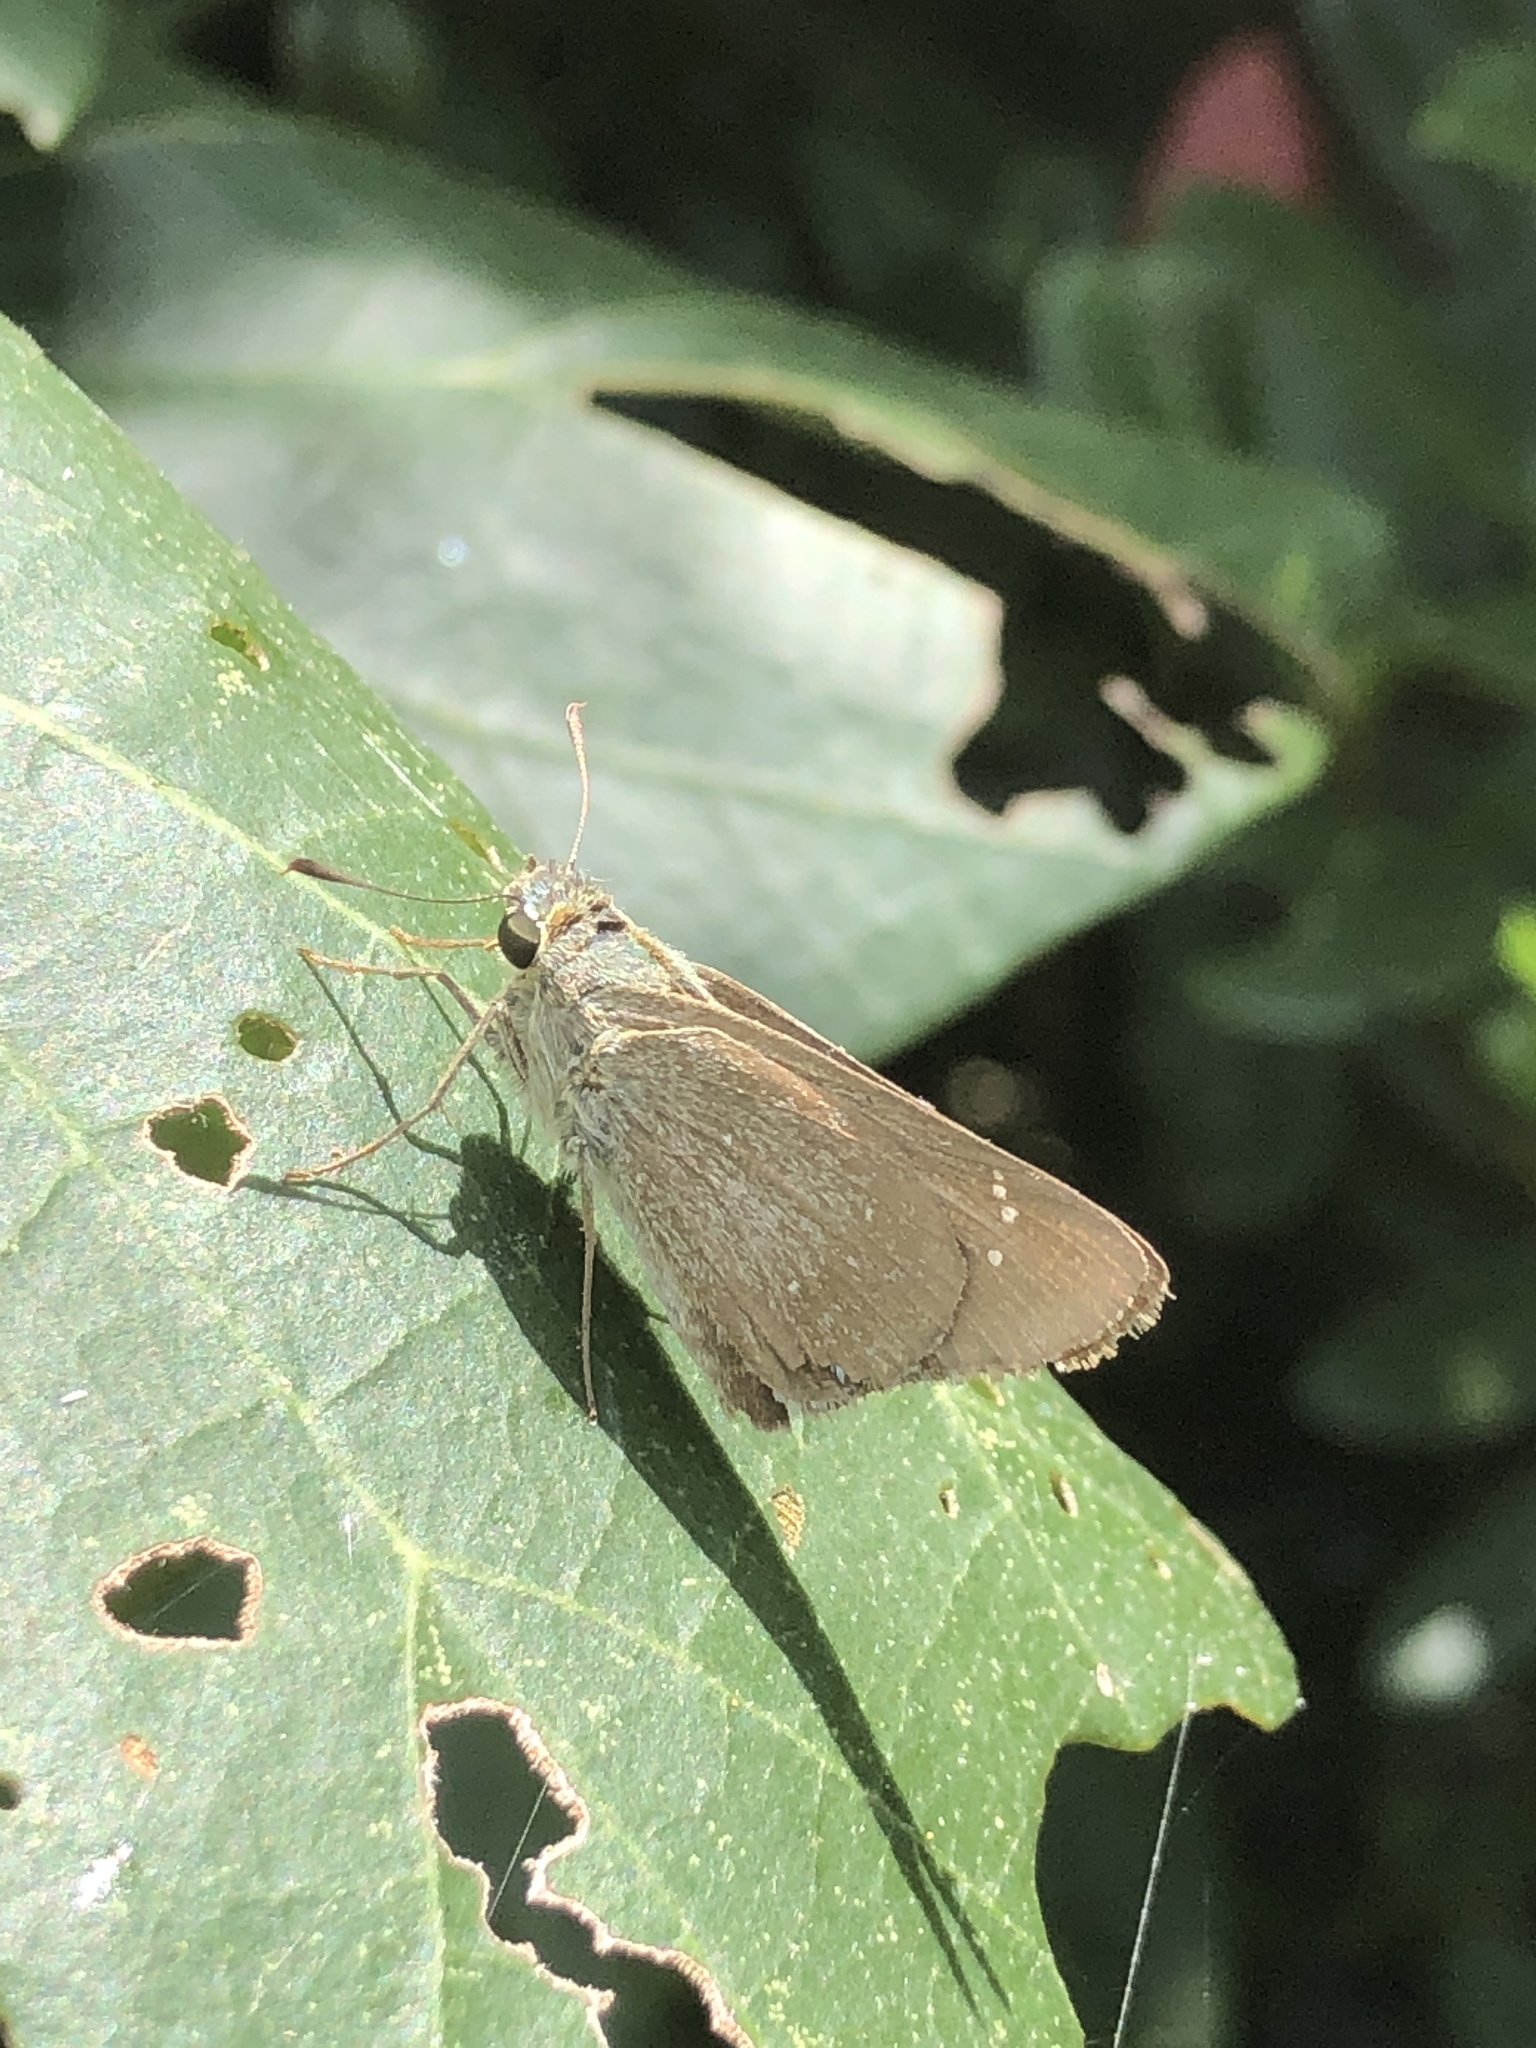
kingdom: Animalia
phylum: Arthropoda
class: Insecta
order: Lepidoptera
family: Hesperiidae
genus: Borbo
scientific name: Borbo cinnara
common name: Formosan swift
